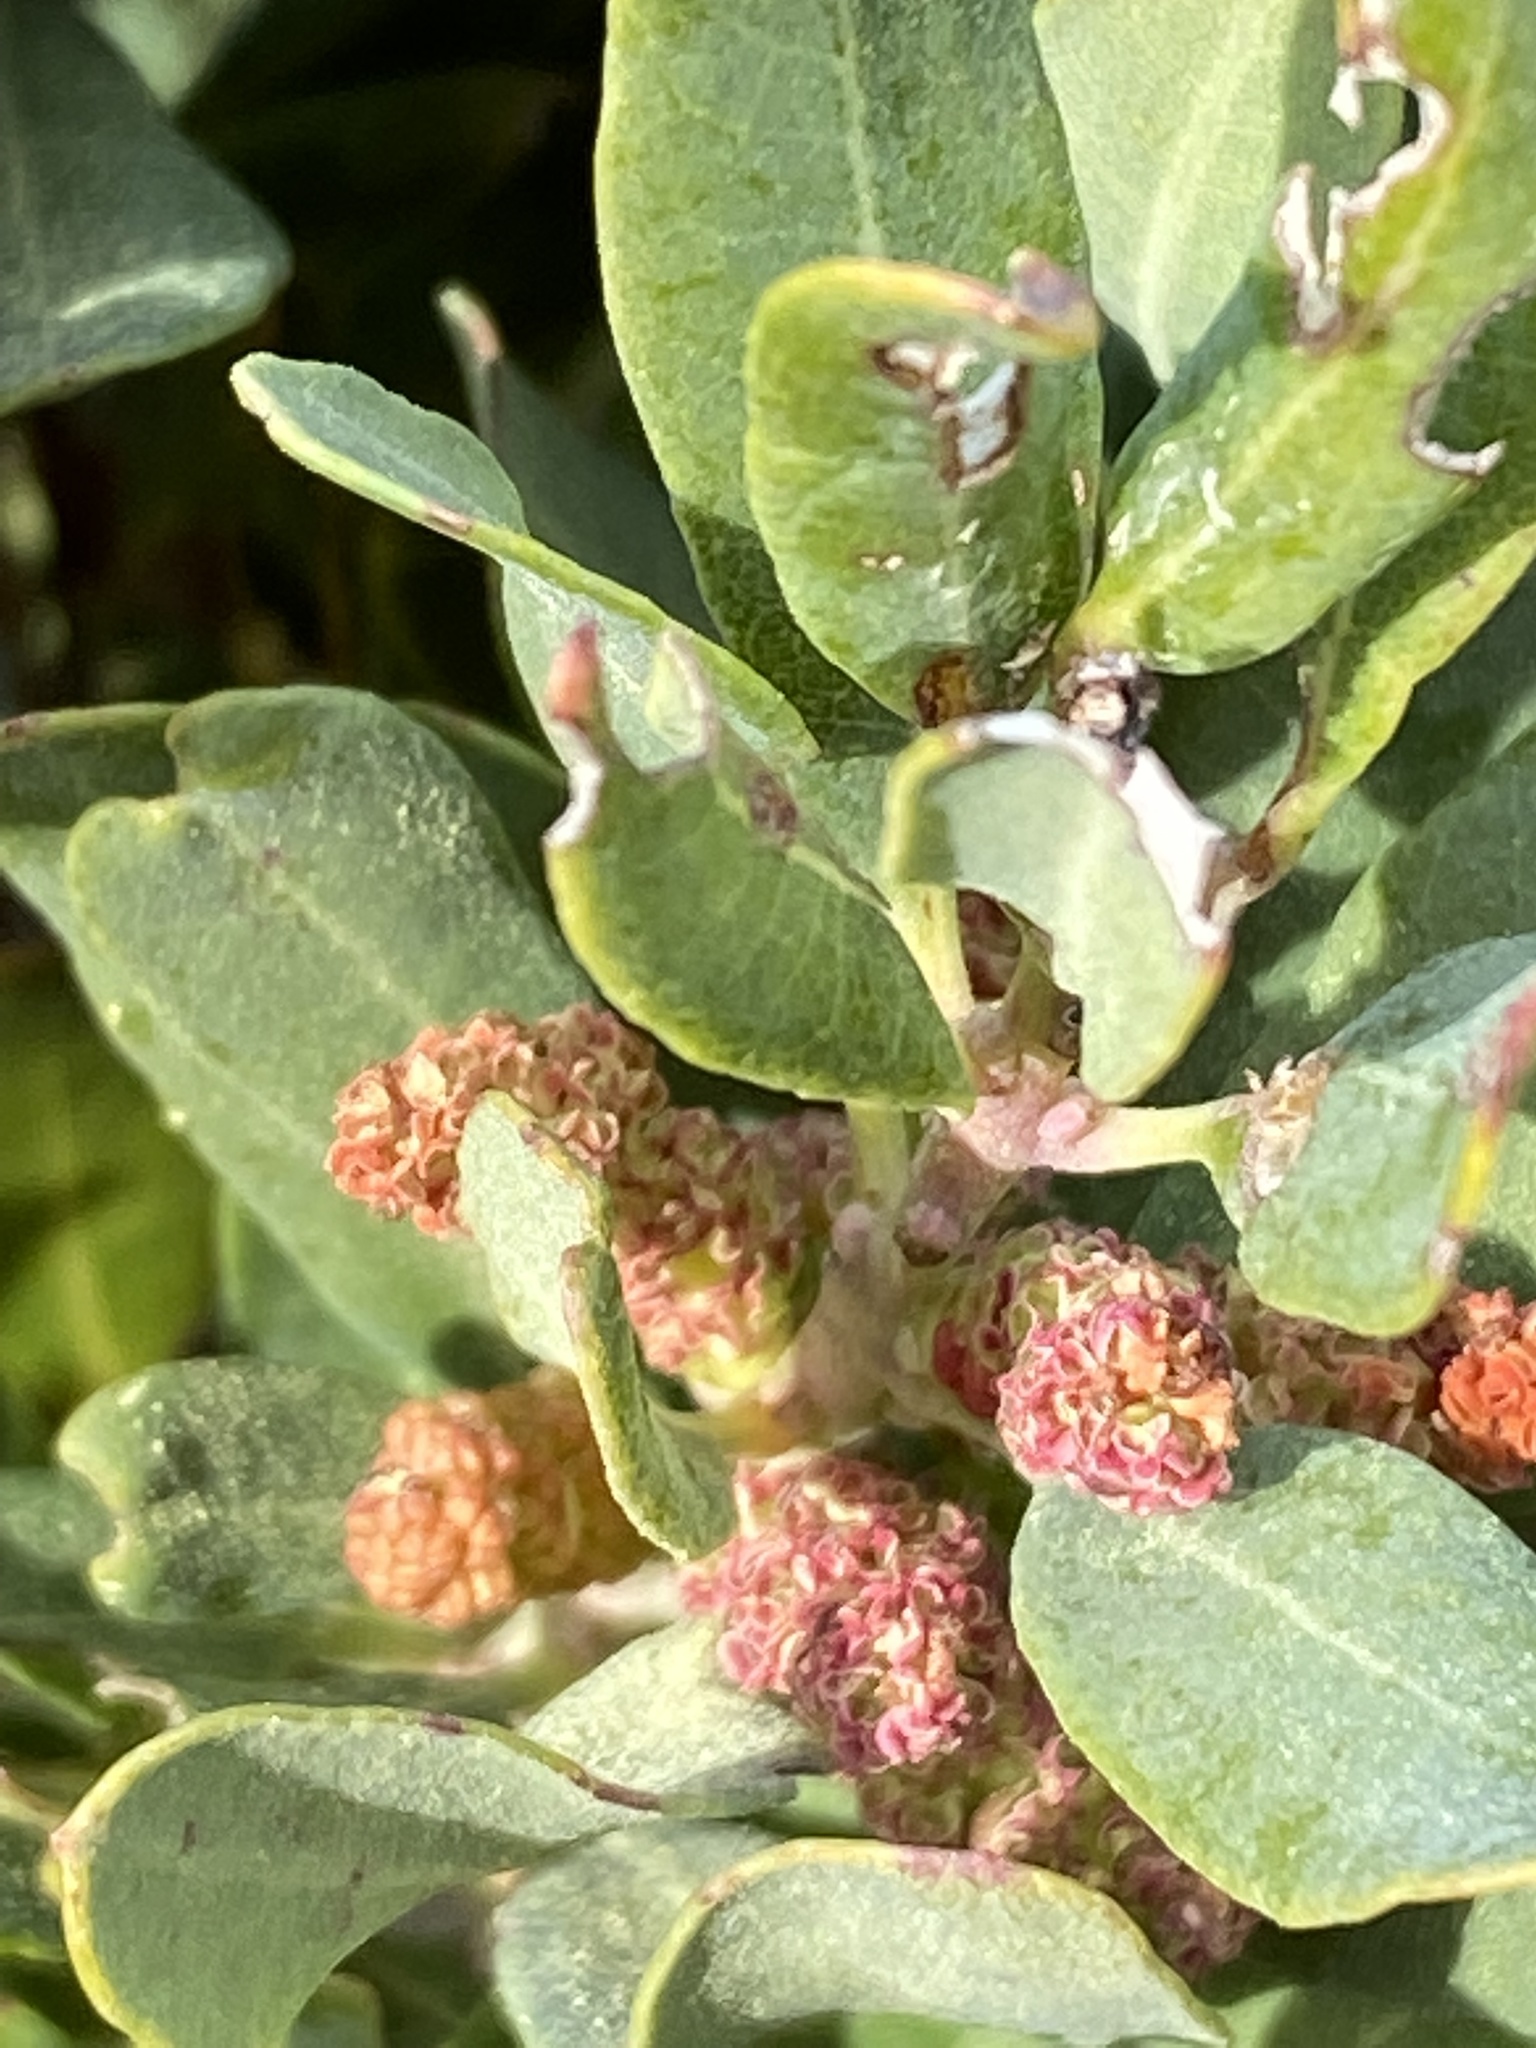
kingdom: Plantae
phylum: Tracheophyta
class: Magnoliopsida
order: Fagales
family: Myricaceae
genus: Morella
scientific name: Morella humilis
